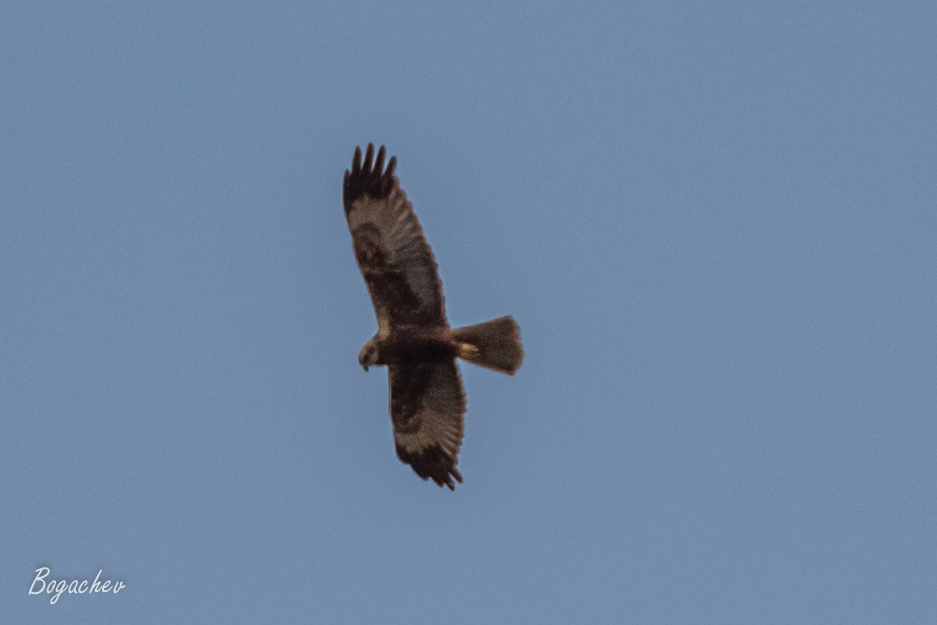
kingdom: Animalia
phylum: Chordata
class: Aves
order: Accipitriformes
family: Accipitridae
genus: Circus
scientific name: Circus aeruginosus
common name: Western marsh harrier
